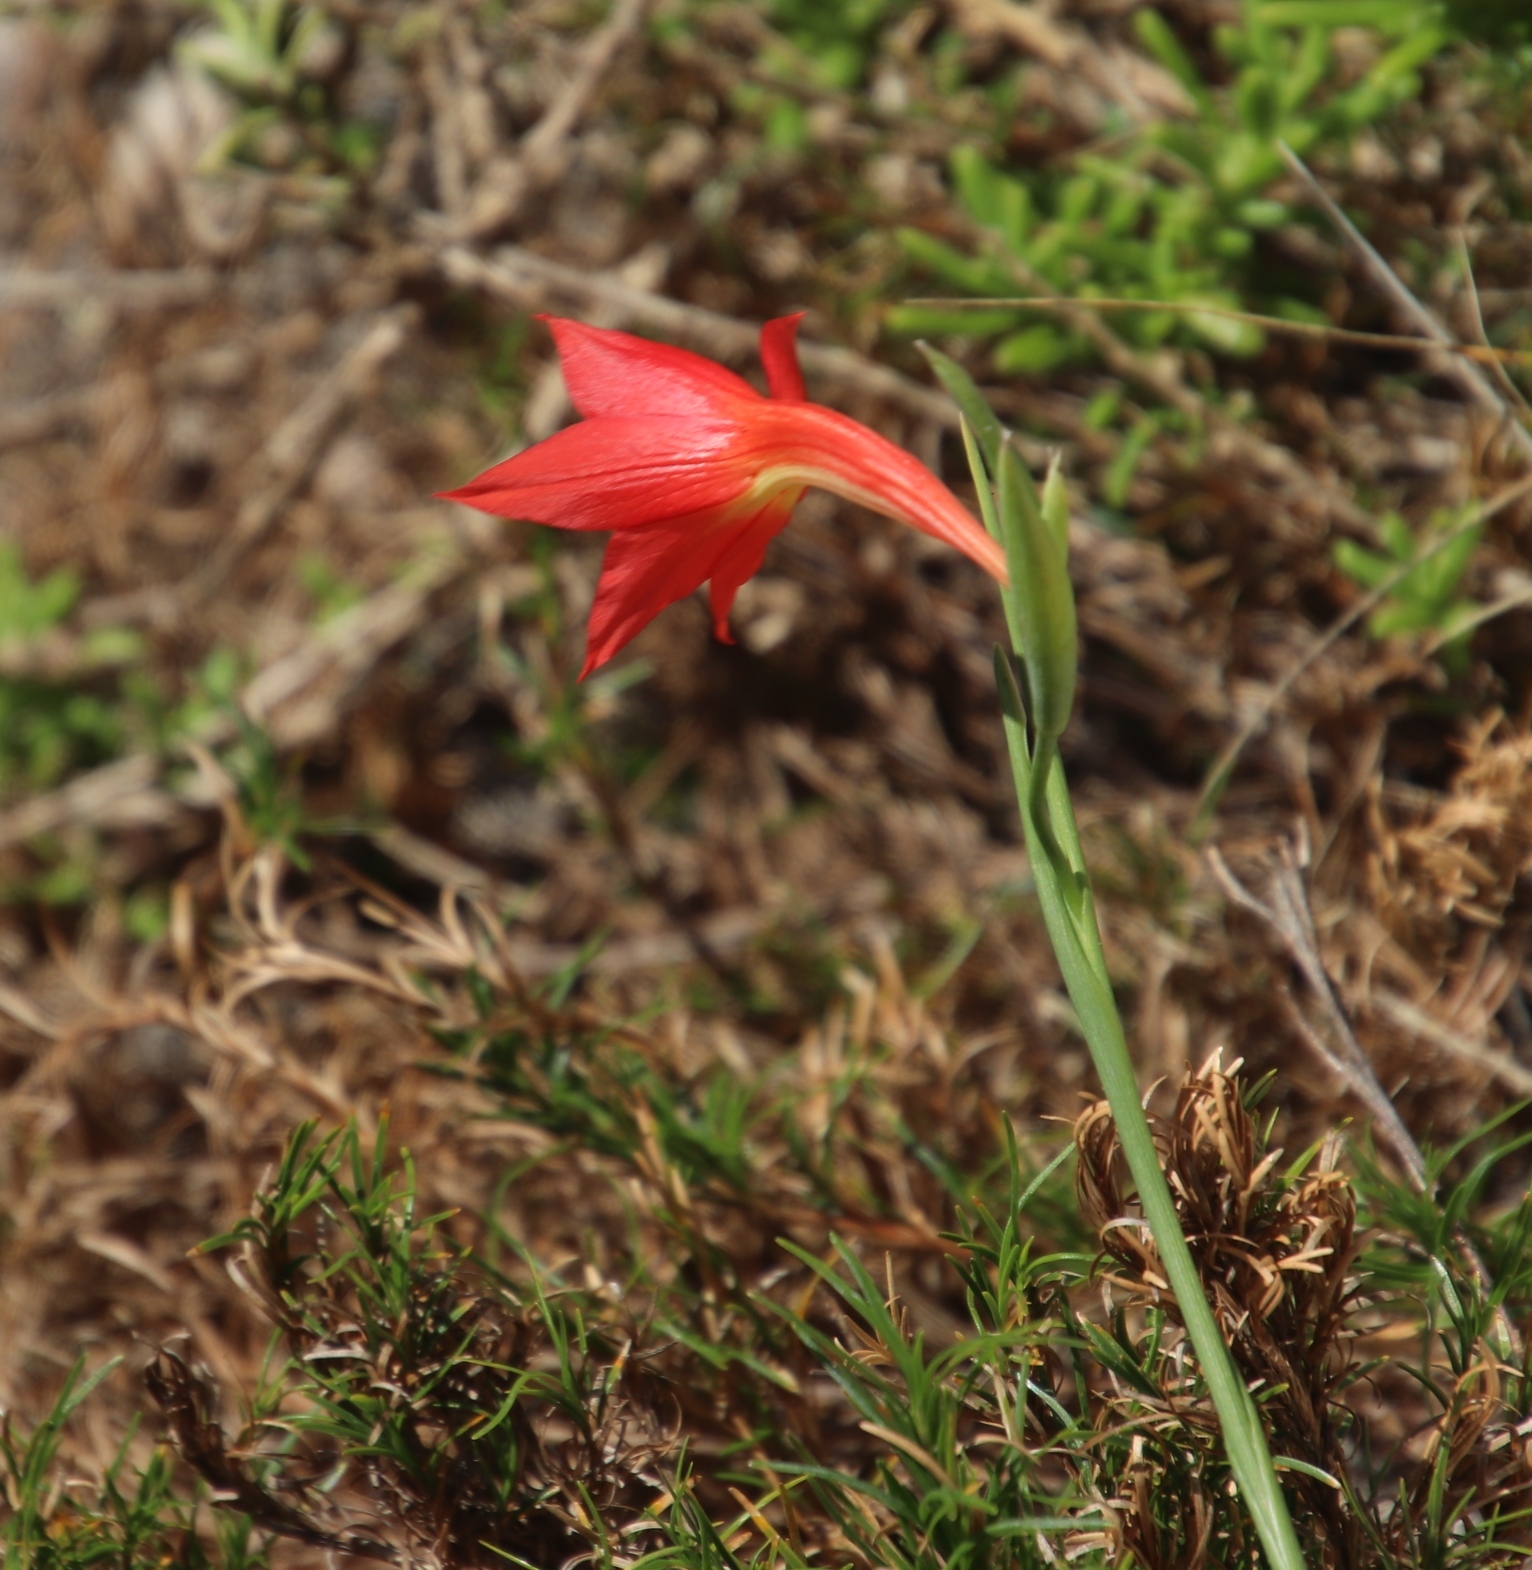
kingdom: Plantae
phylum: Tracheophyta
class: Liliopsida
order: Asparagales
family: Iridaceae
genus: Gladiolus
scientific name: Gladiolus priorii
